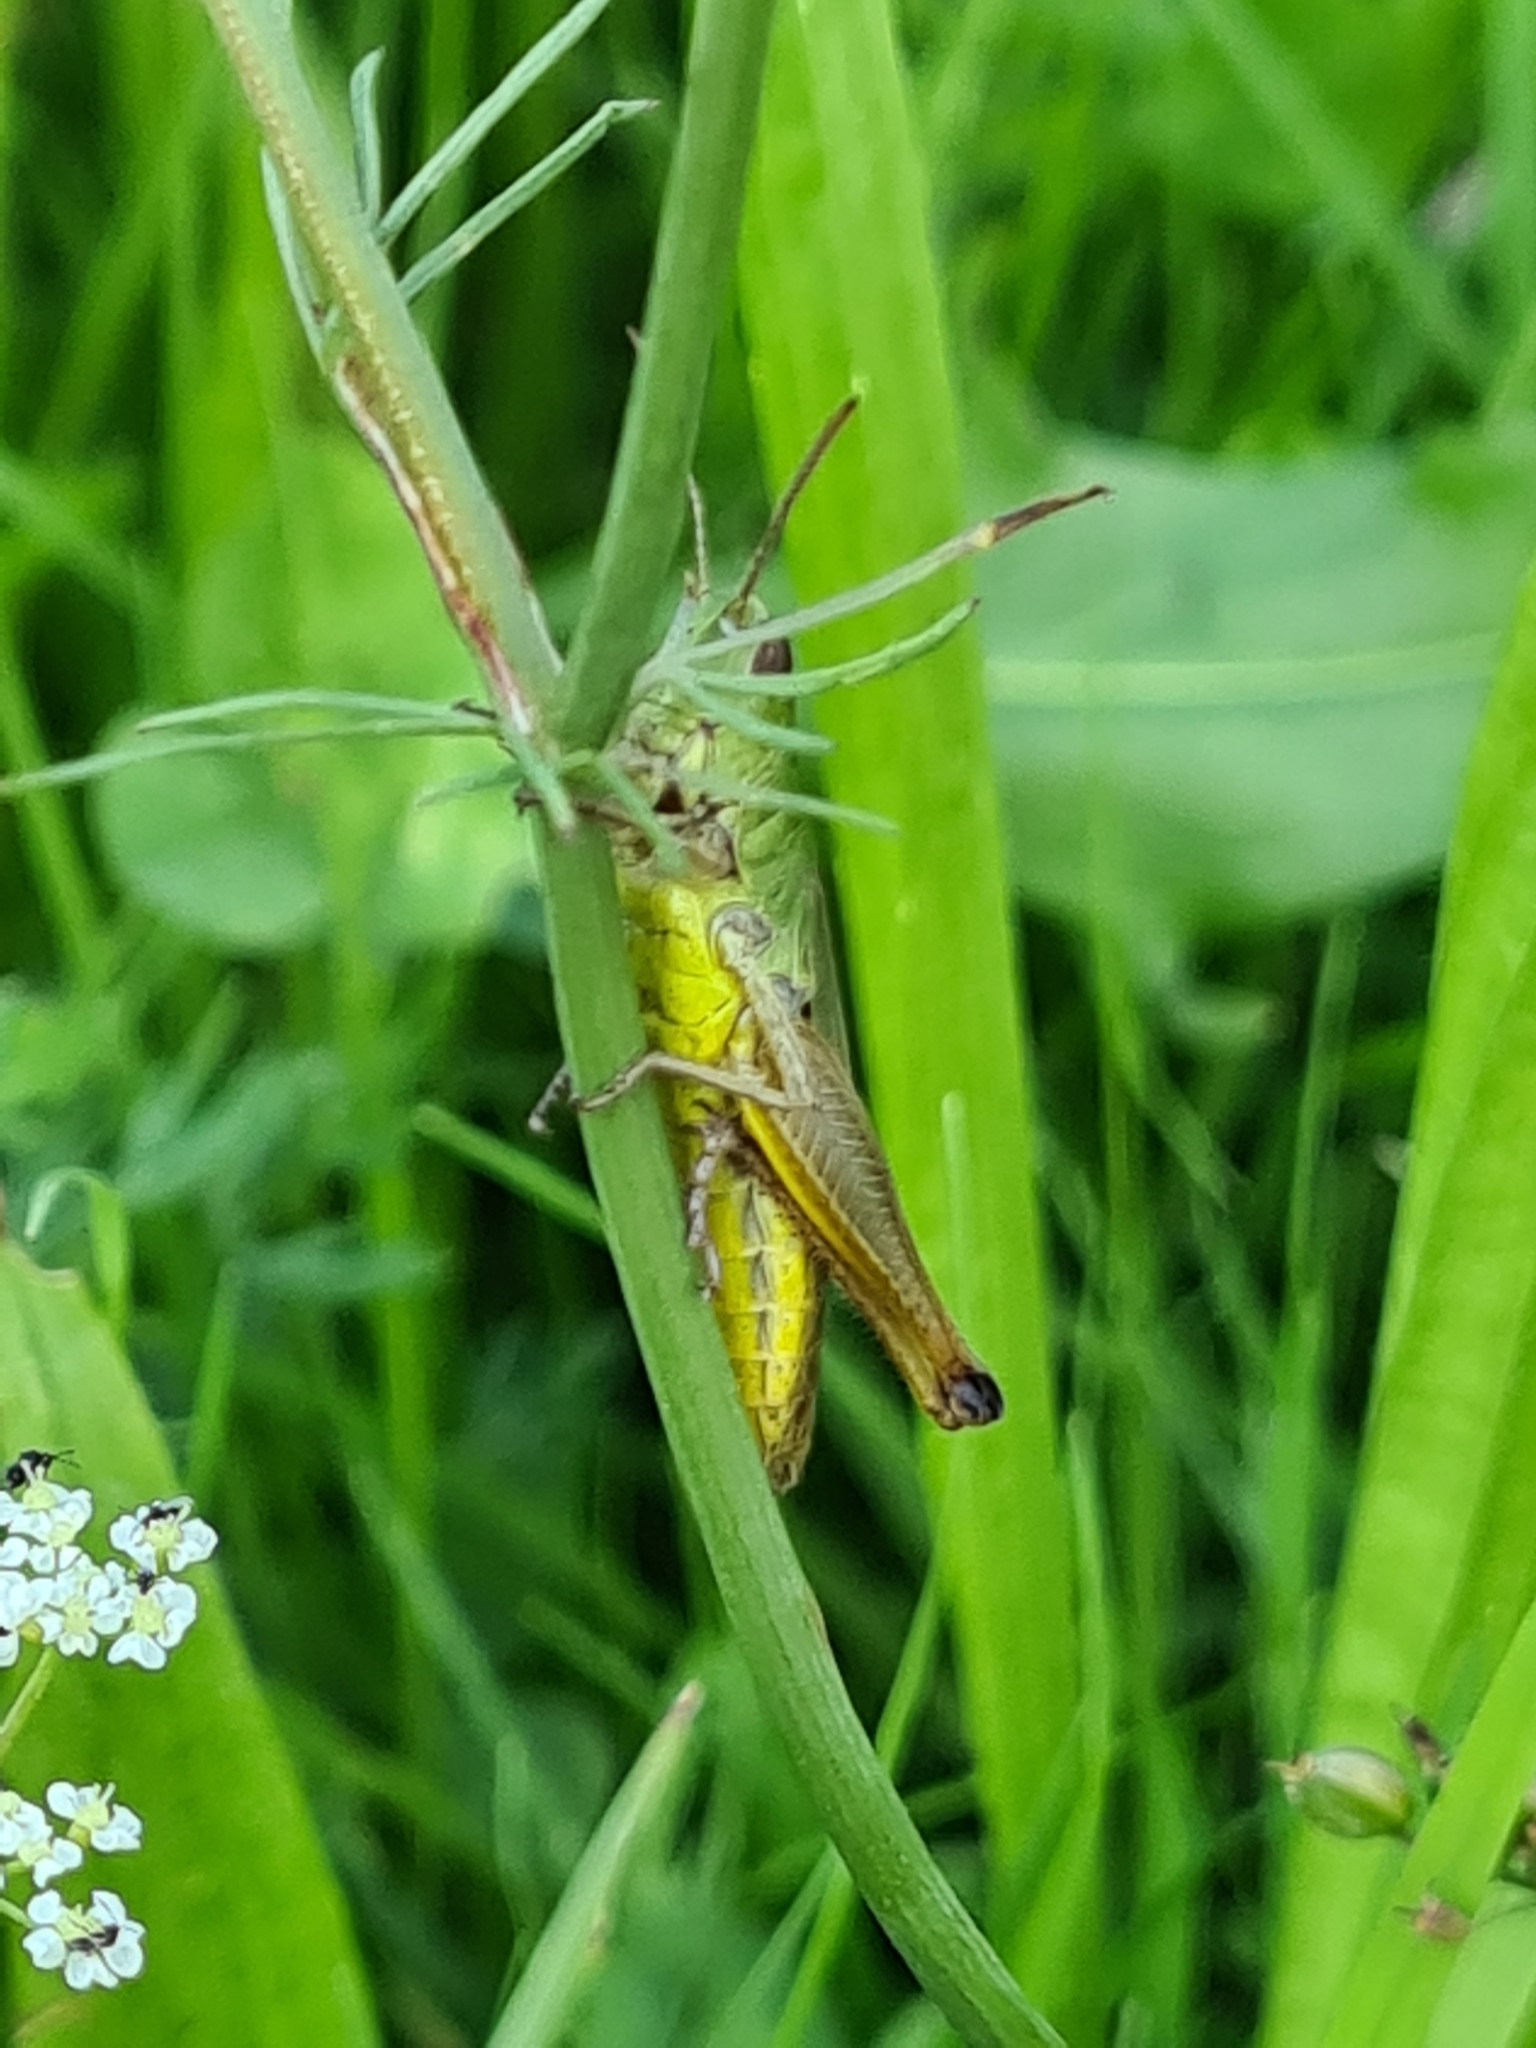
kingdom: Animalia
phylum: Arthropoda
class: Insecta
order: Orthoptera
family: Acrididae
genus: Pseudochorthippus
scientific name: Pseudochorthippus parallelus
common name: Meadow grasshopper
